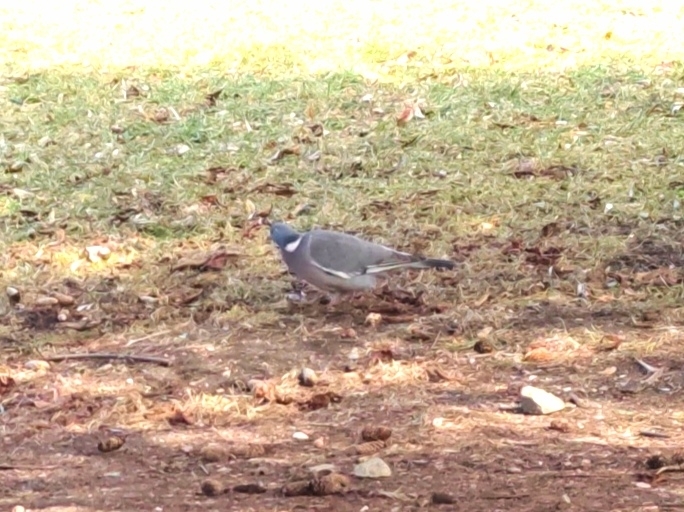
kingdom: Animalia
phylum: Chordata
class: Aves
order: Columbiformes
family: Columbidae
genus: Columba
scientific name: Columba palumbus
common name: Common wood pigeon
